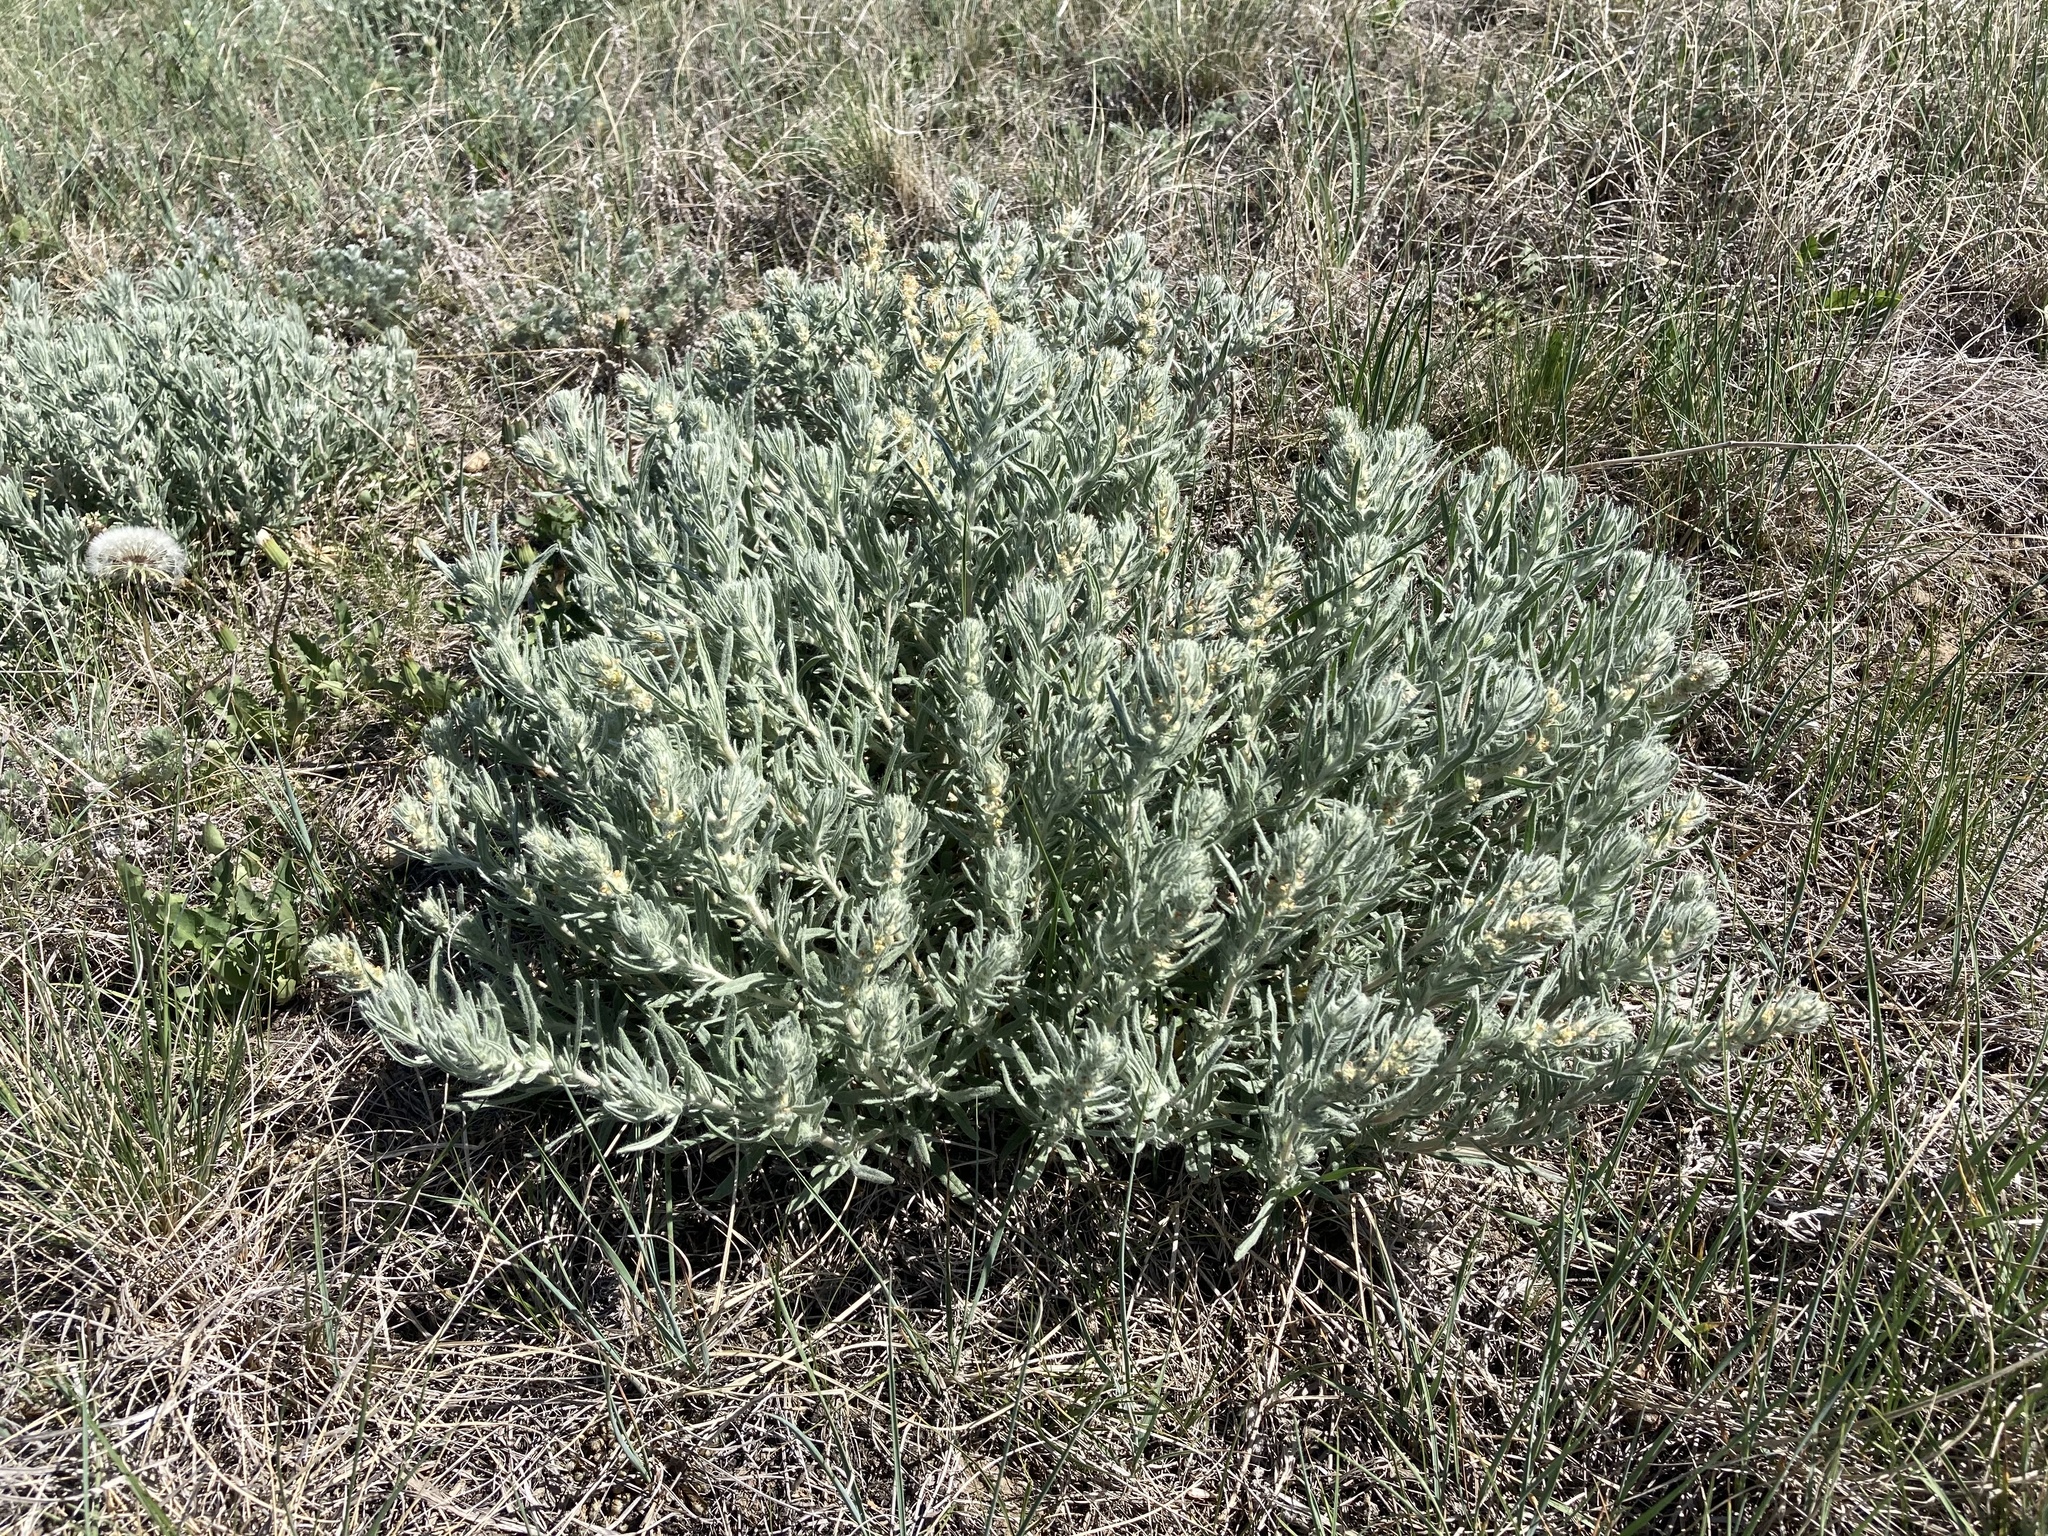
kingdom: Plantae
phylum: Tracheophyta
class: Magnoliopsida
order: Caryophyllales
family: Amaranthaceae
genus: Krascheninnikovia
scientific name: Krascheninnikovia lanata
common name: Winterfat
